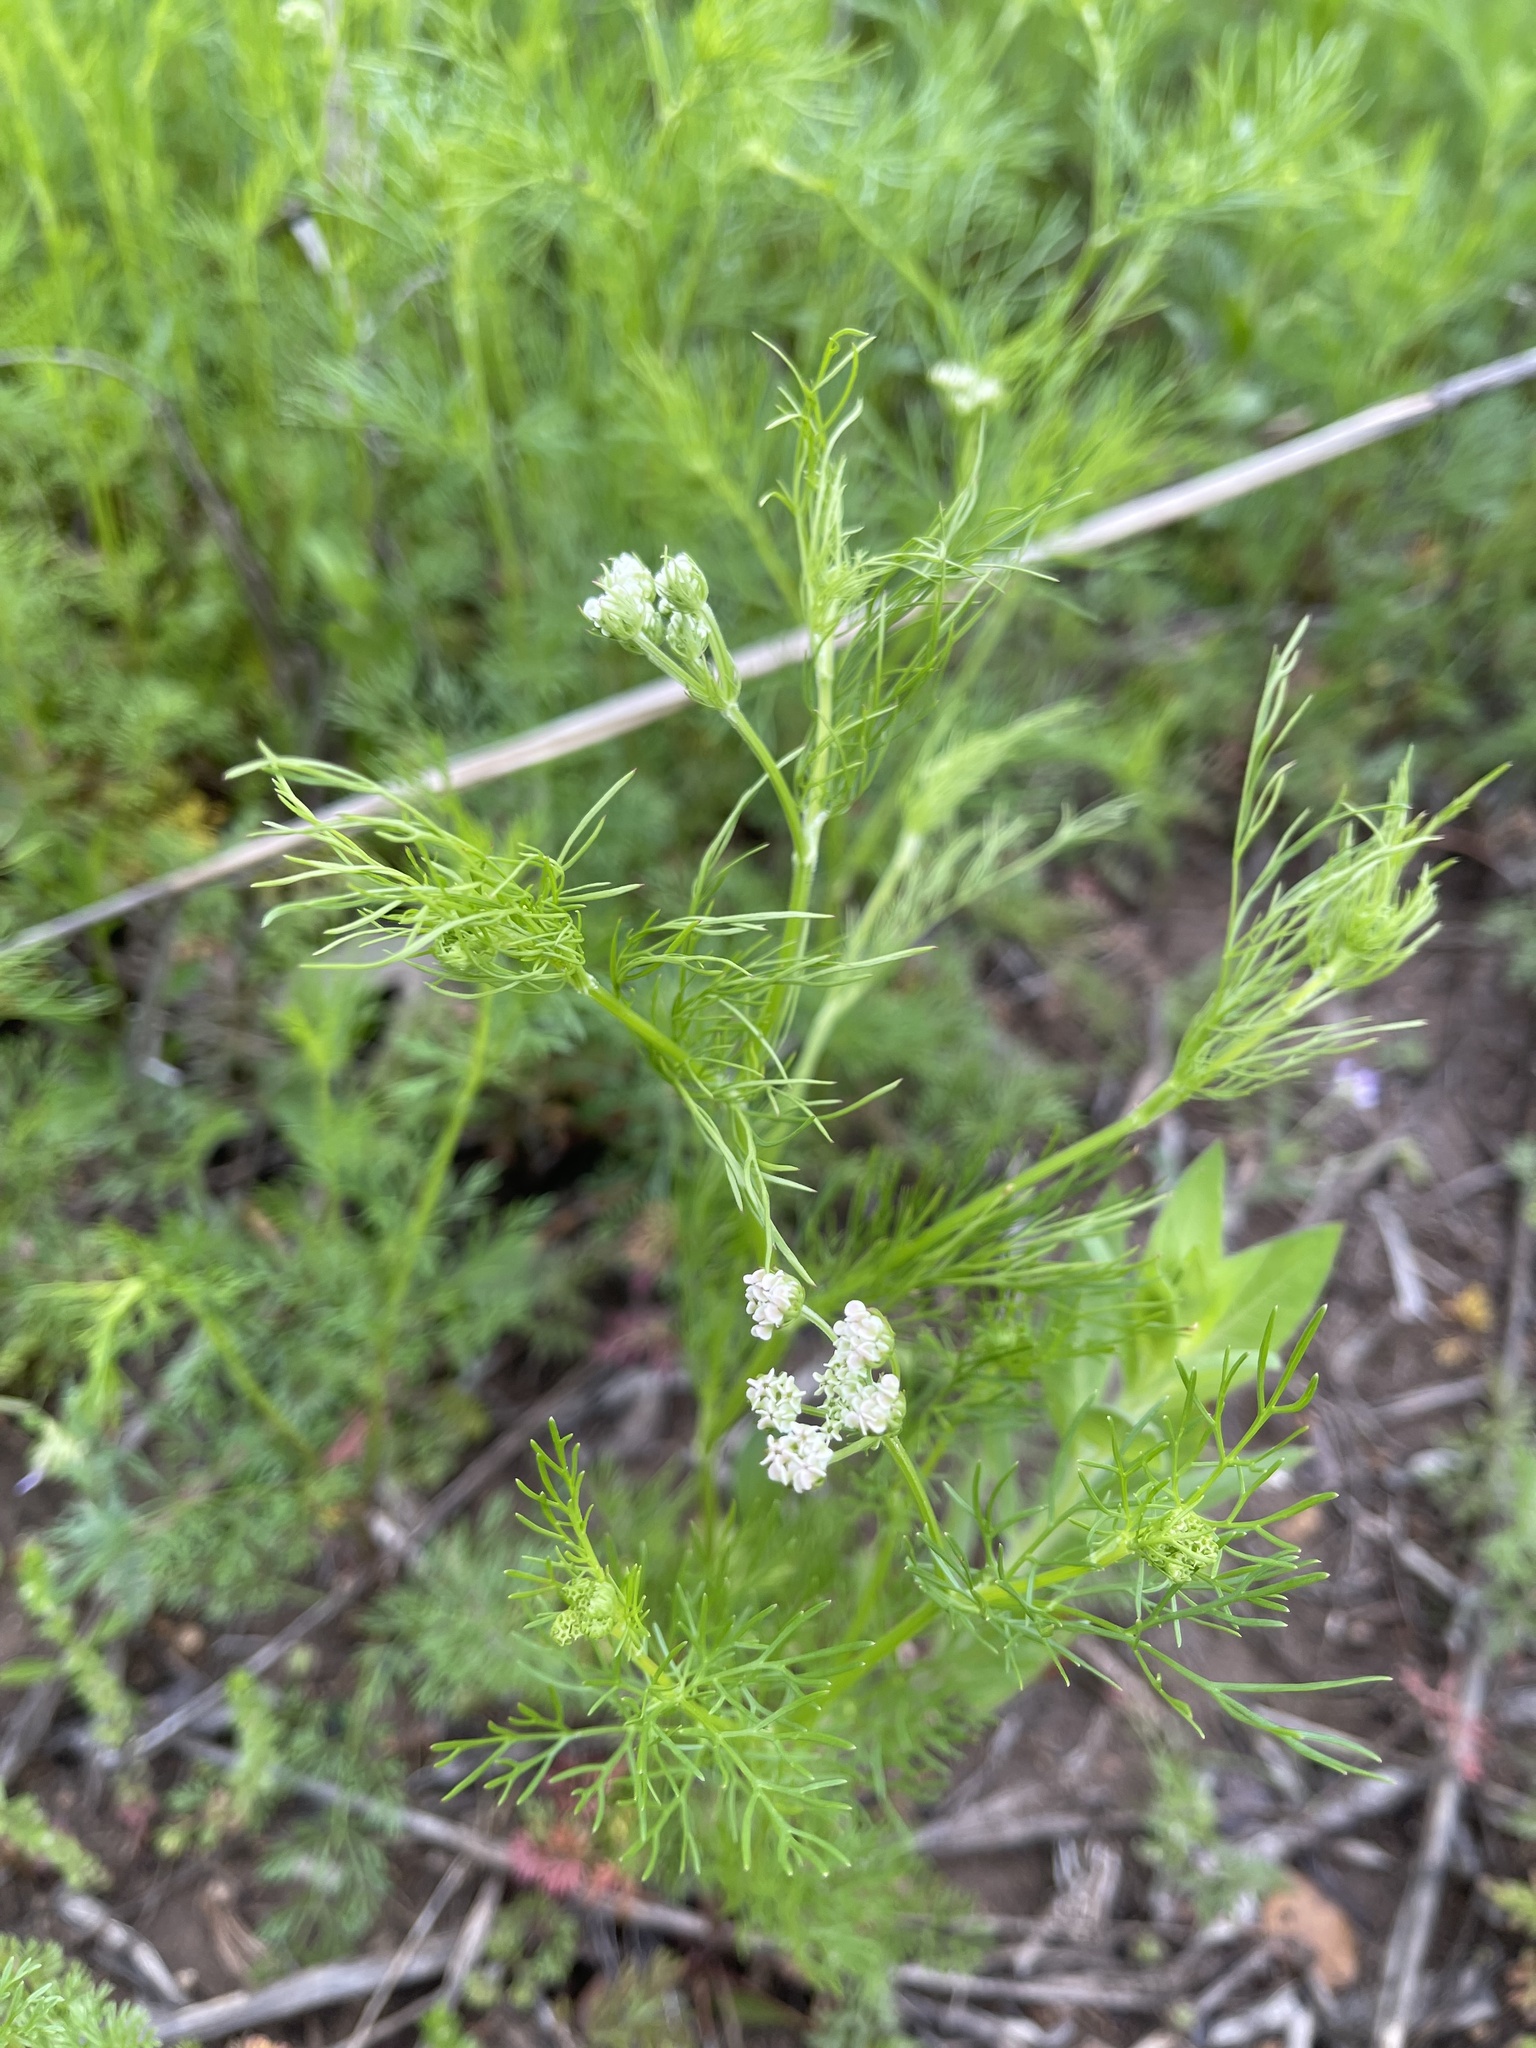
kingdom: Plantae
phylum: Tracheophyta
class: Magnoliopsida
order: Apiales
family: Apiaceae
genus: Atrema
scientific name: Atrema americanum
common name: Prairie-bishop
